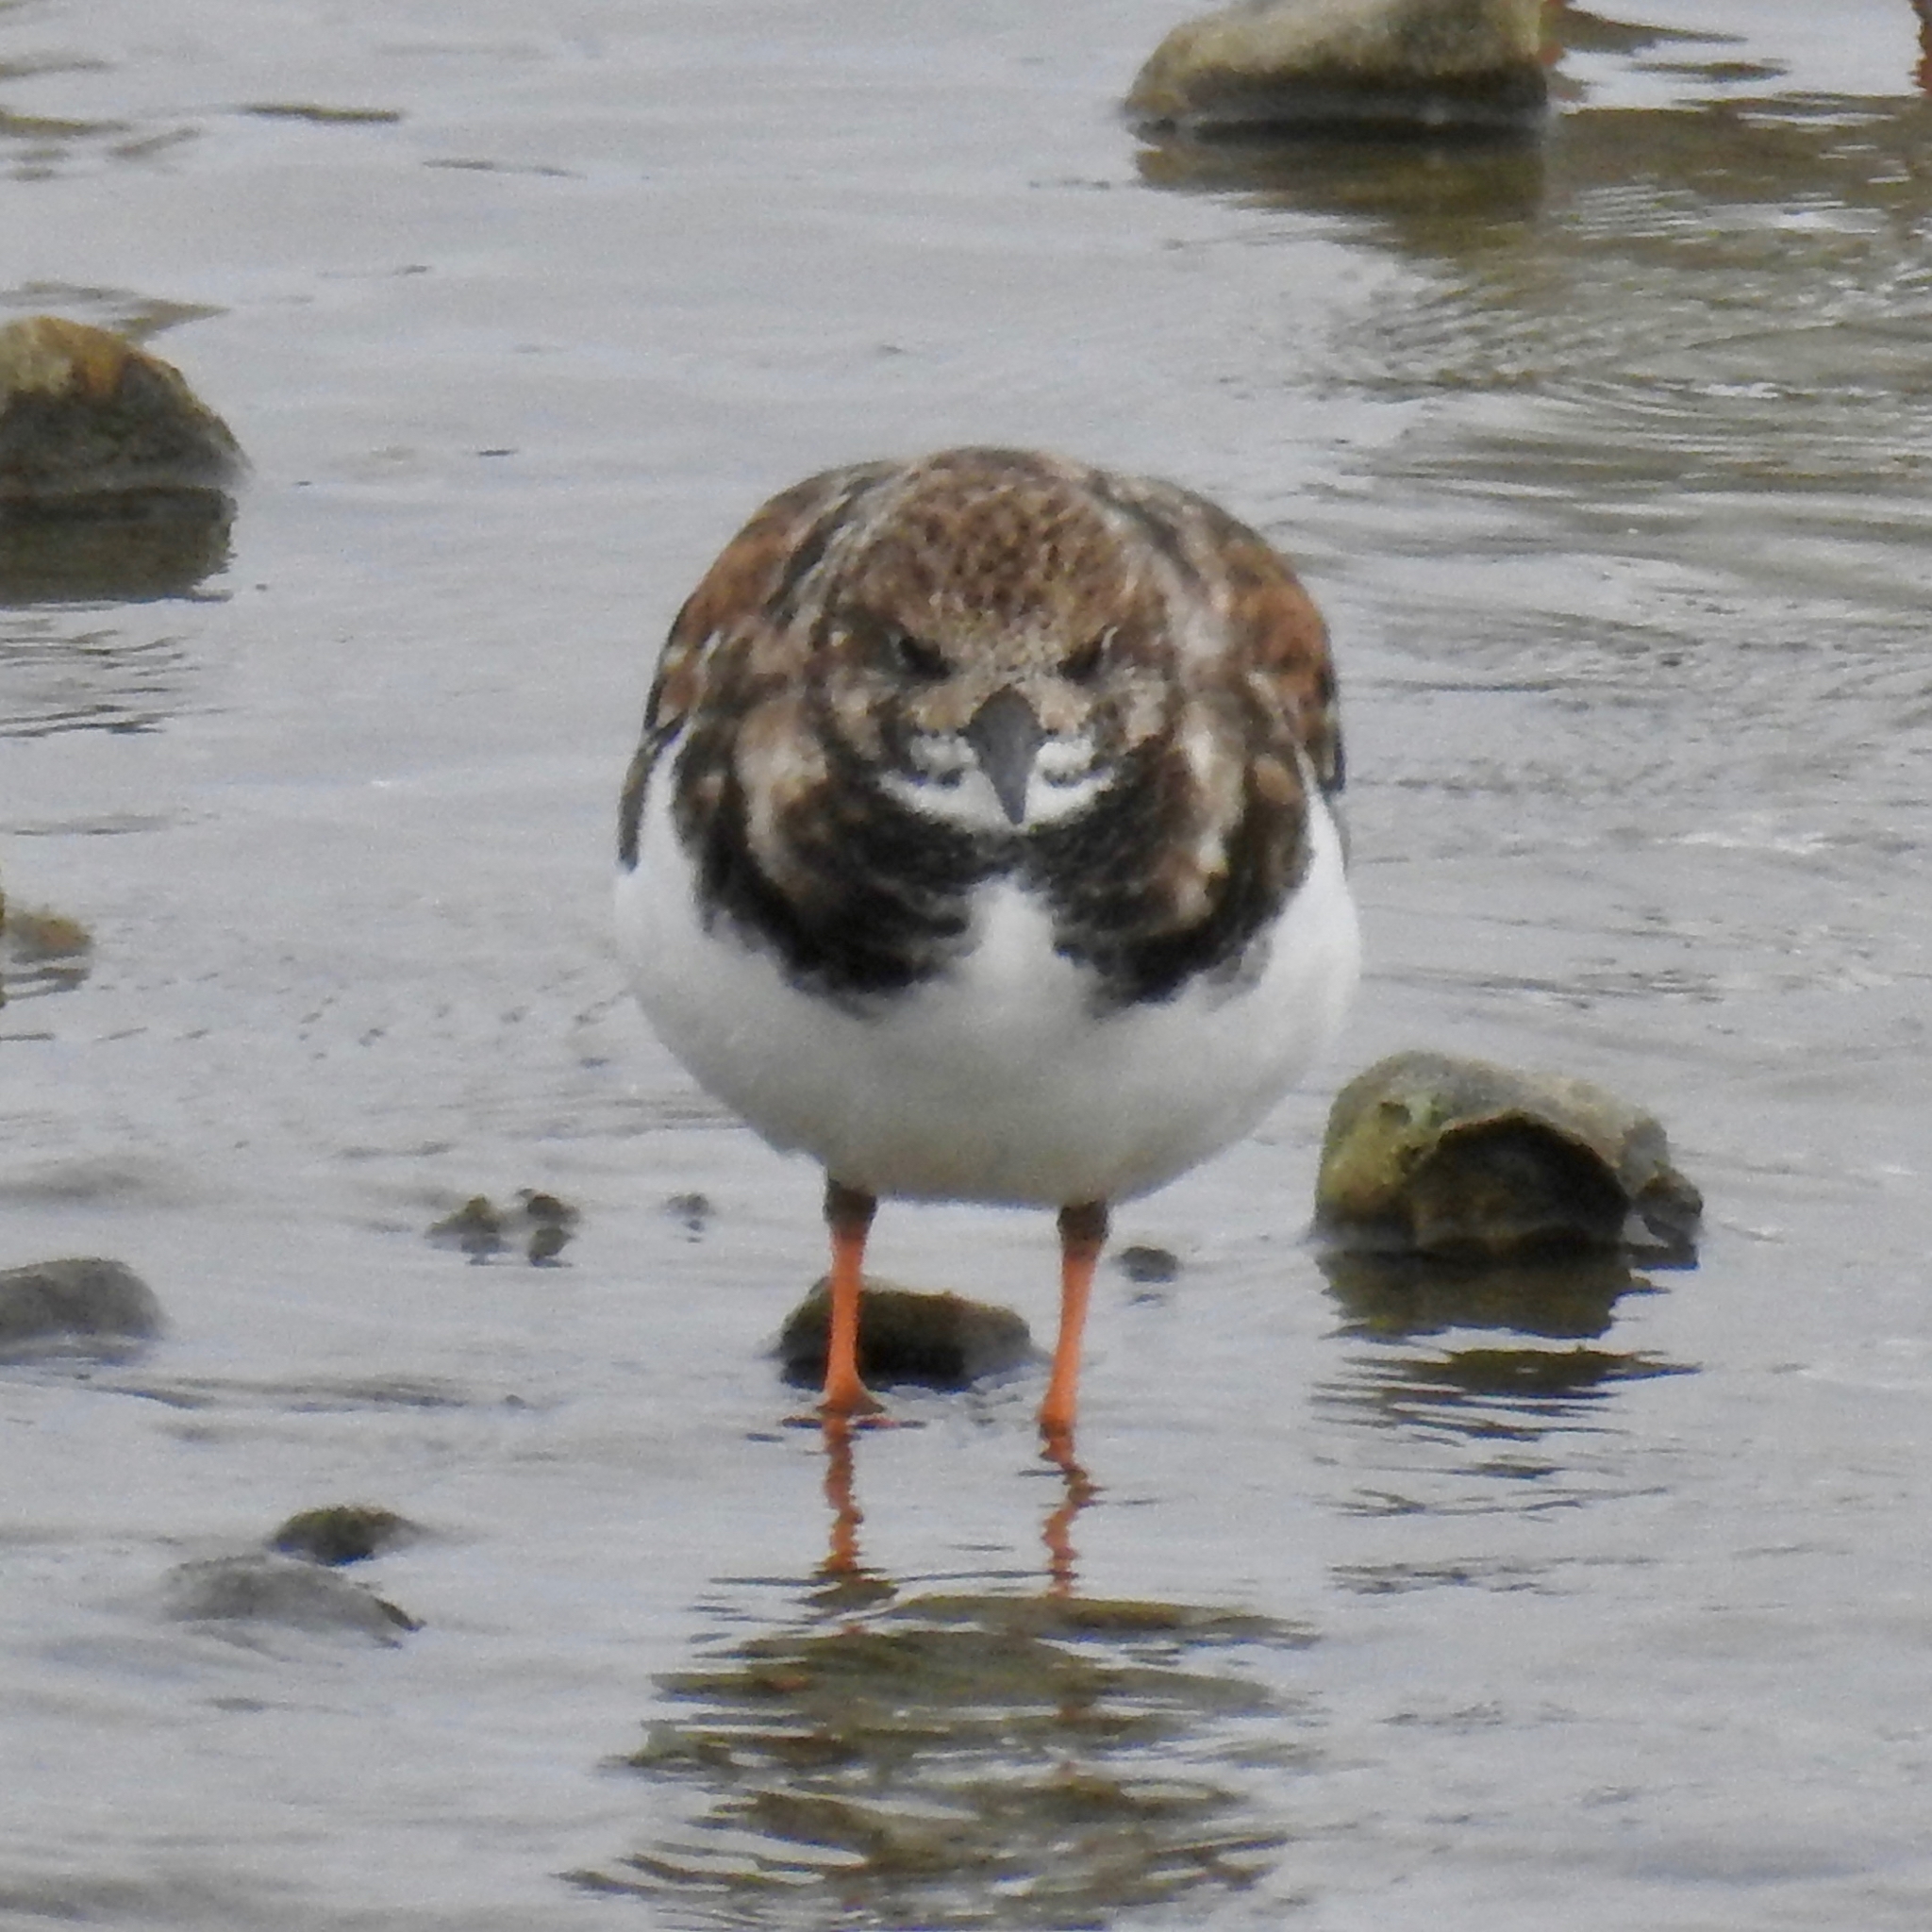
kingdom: Animalia
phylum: Chordata
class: Aves
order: Charadriiformes
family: Scolopacidae
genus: Arenaria
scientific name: Arenaria interpres
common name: Ruddy turnstone
